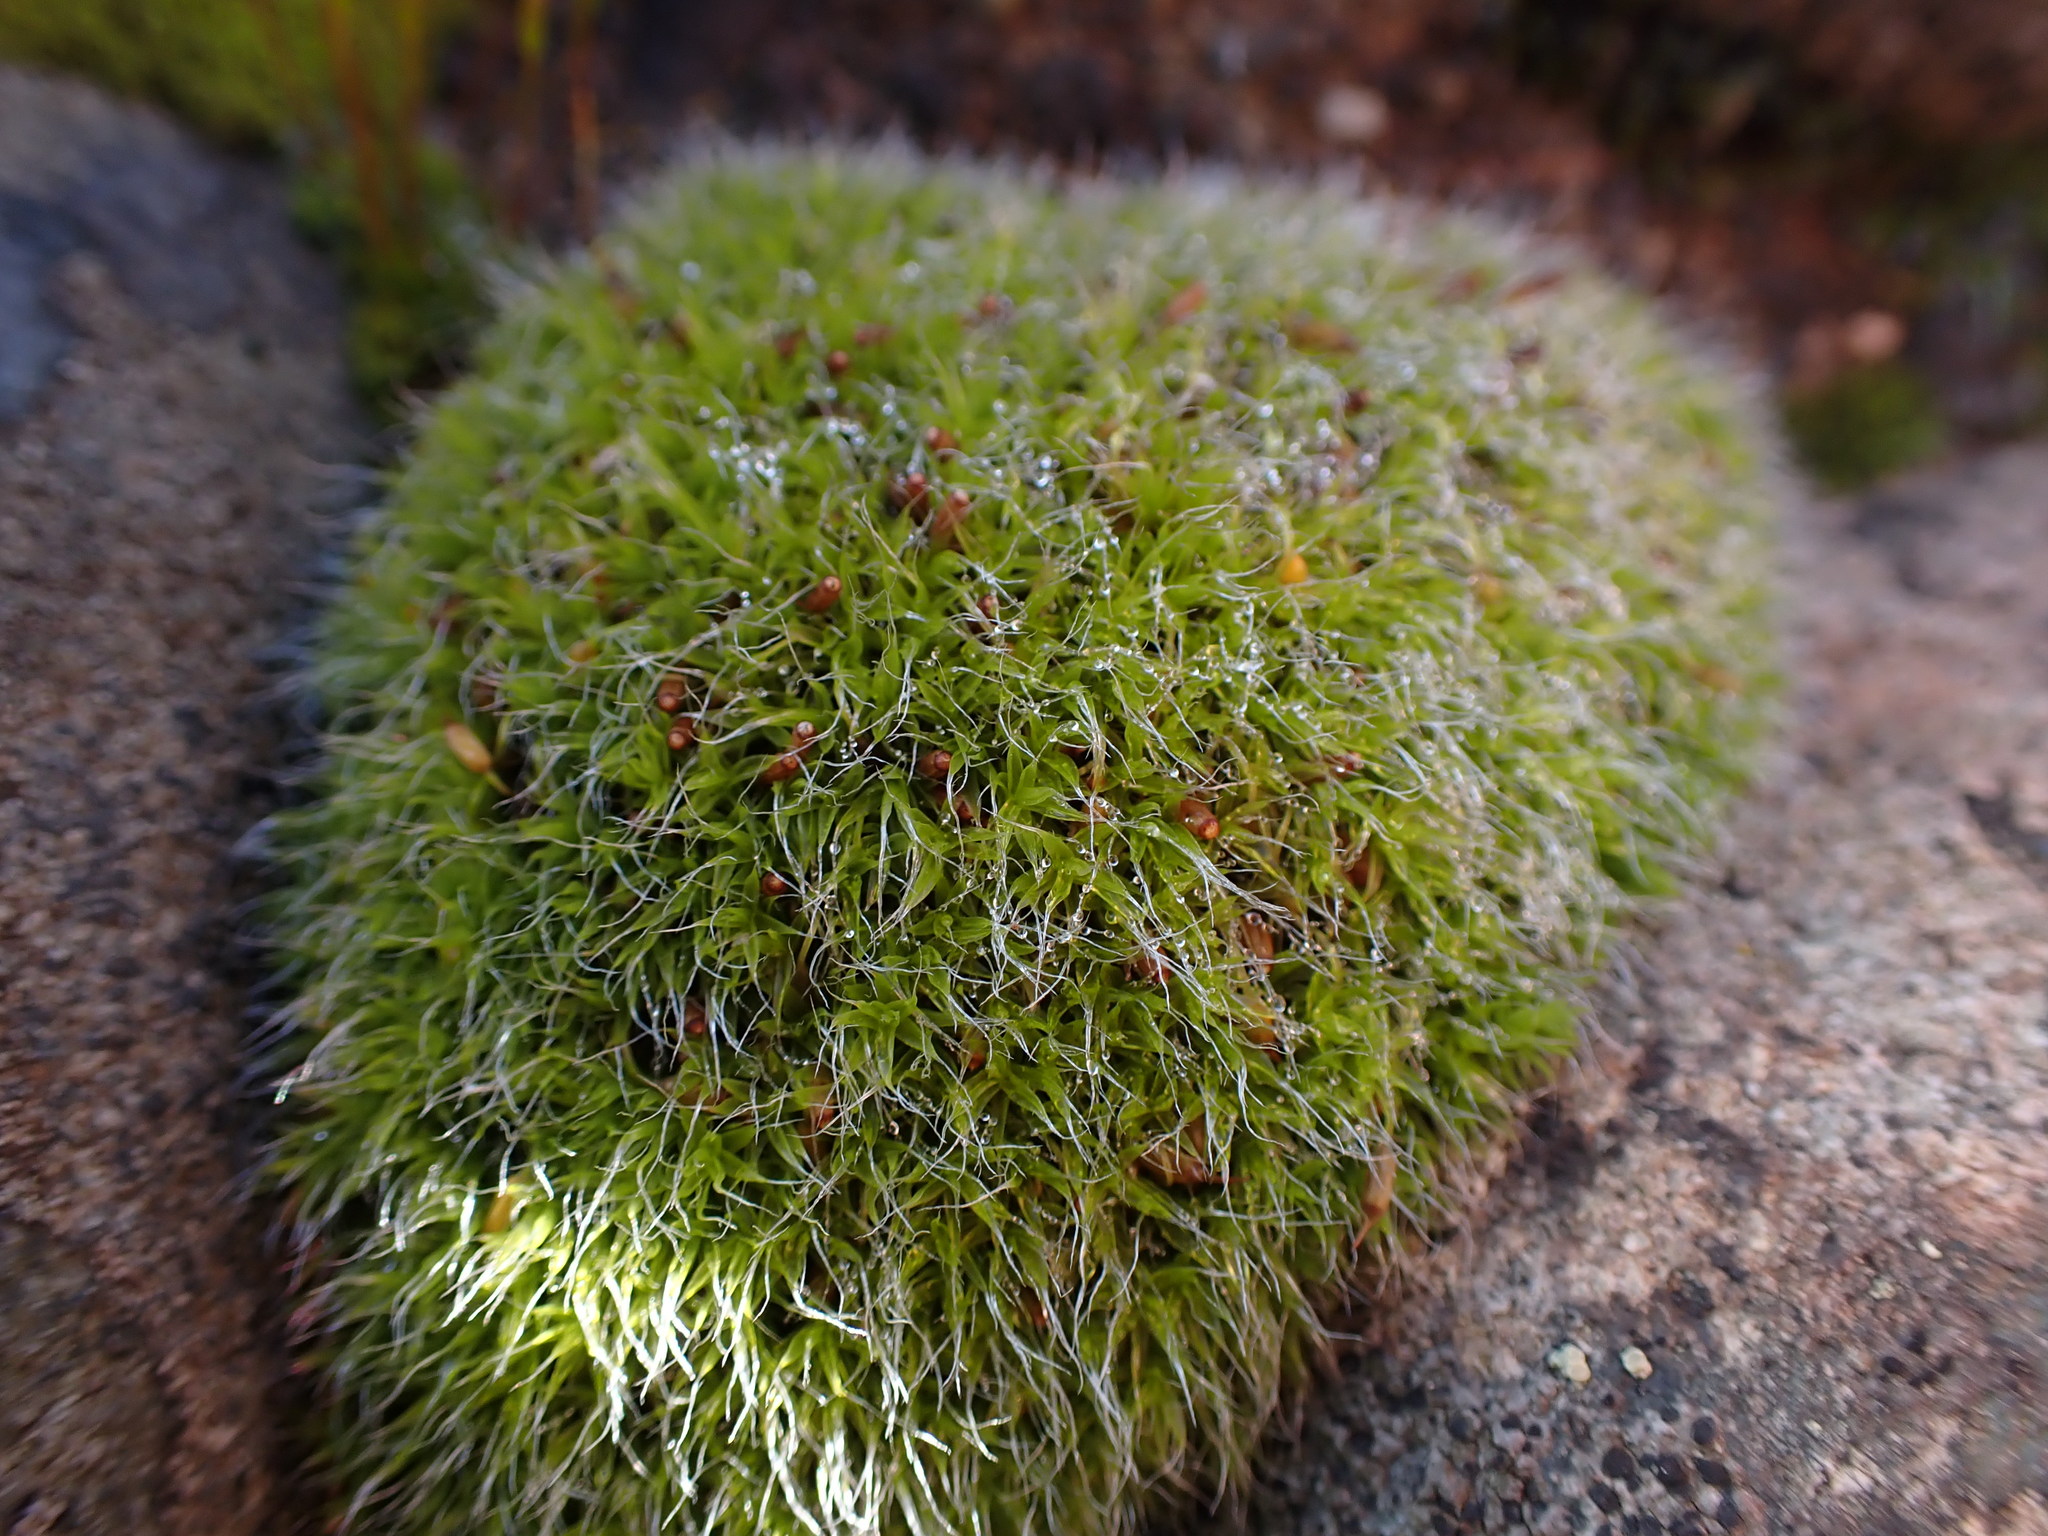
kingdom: Plantae
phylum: Bryophyta
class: Bryopsida
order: Grimmiales
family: Grimmiaceae
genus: Grimmia
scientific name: Grimmia pulvinata
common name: Grey-cushioned grimmia
